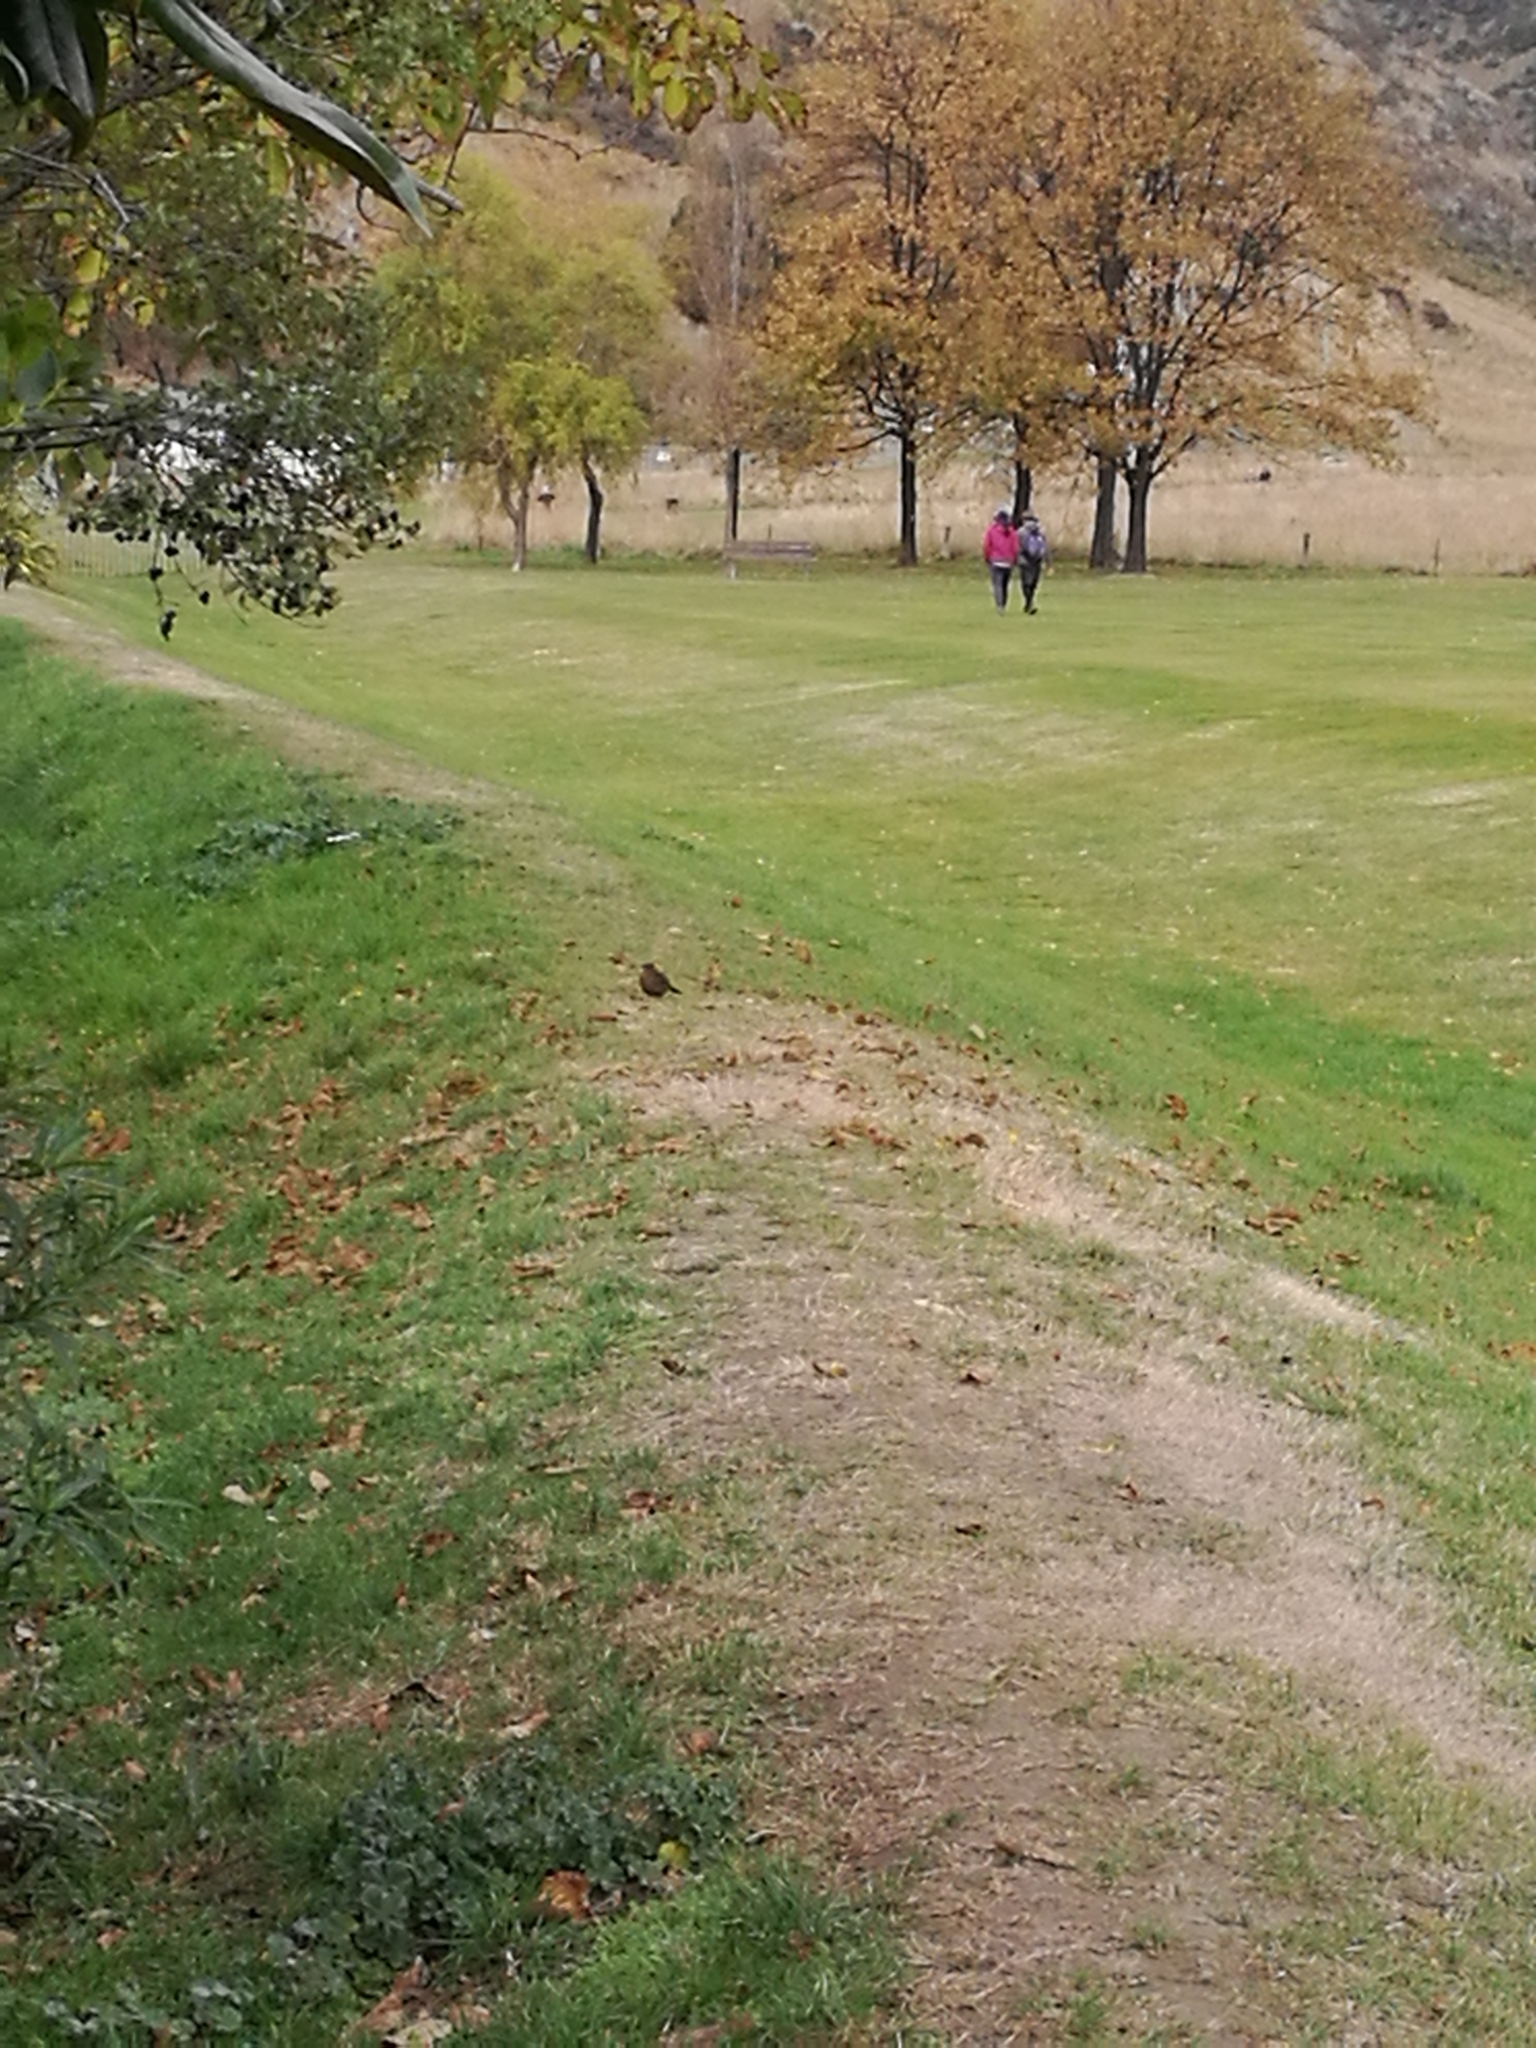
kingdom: Animalia
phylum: Chordata
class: Aves
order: Passeriformes
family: Turdidae
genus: Turdus
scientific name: Turdus merula
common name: Common blackbird
